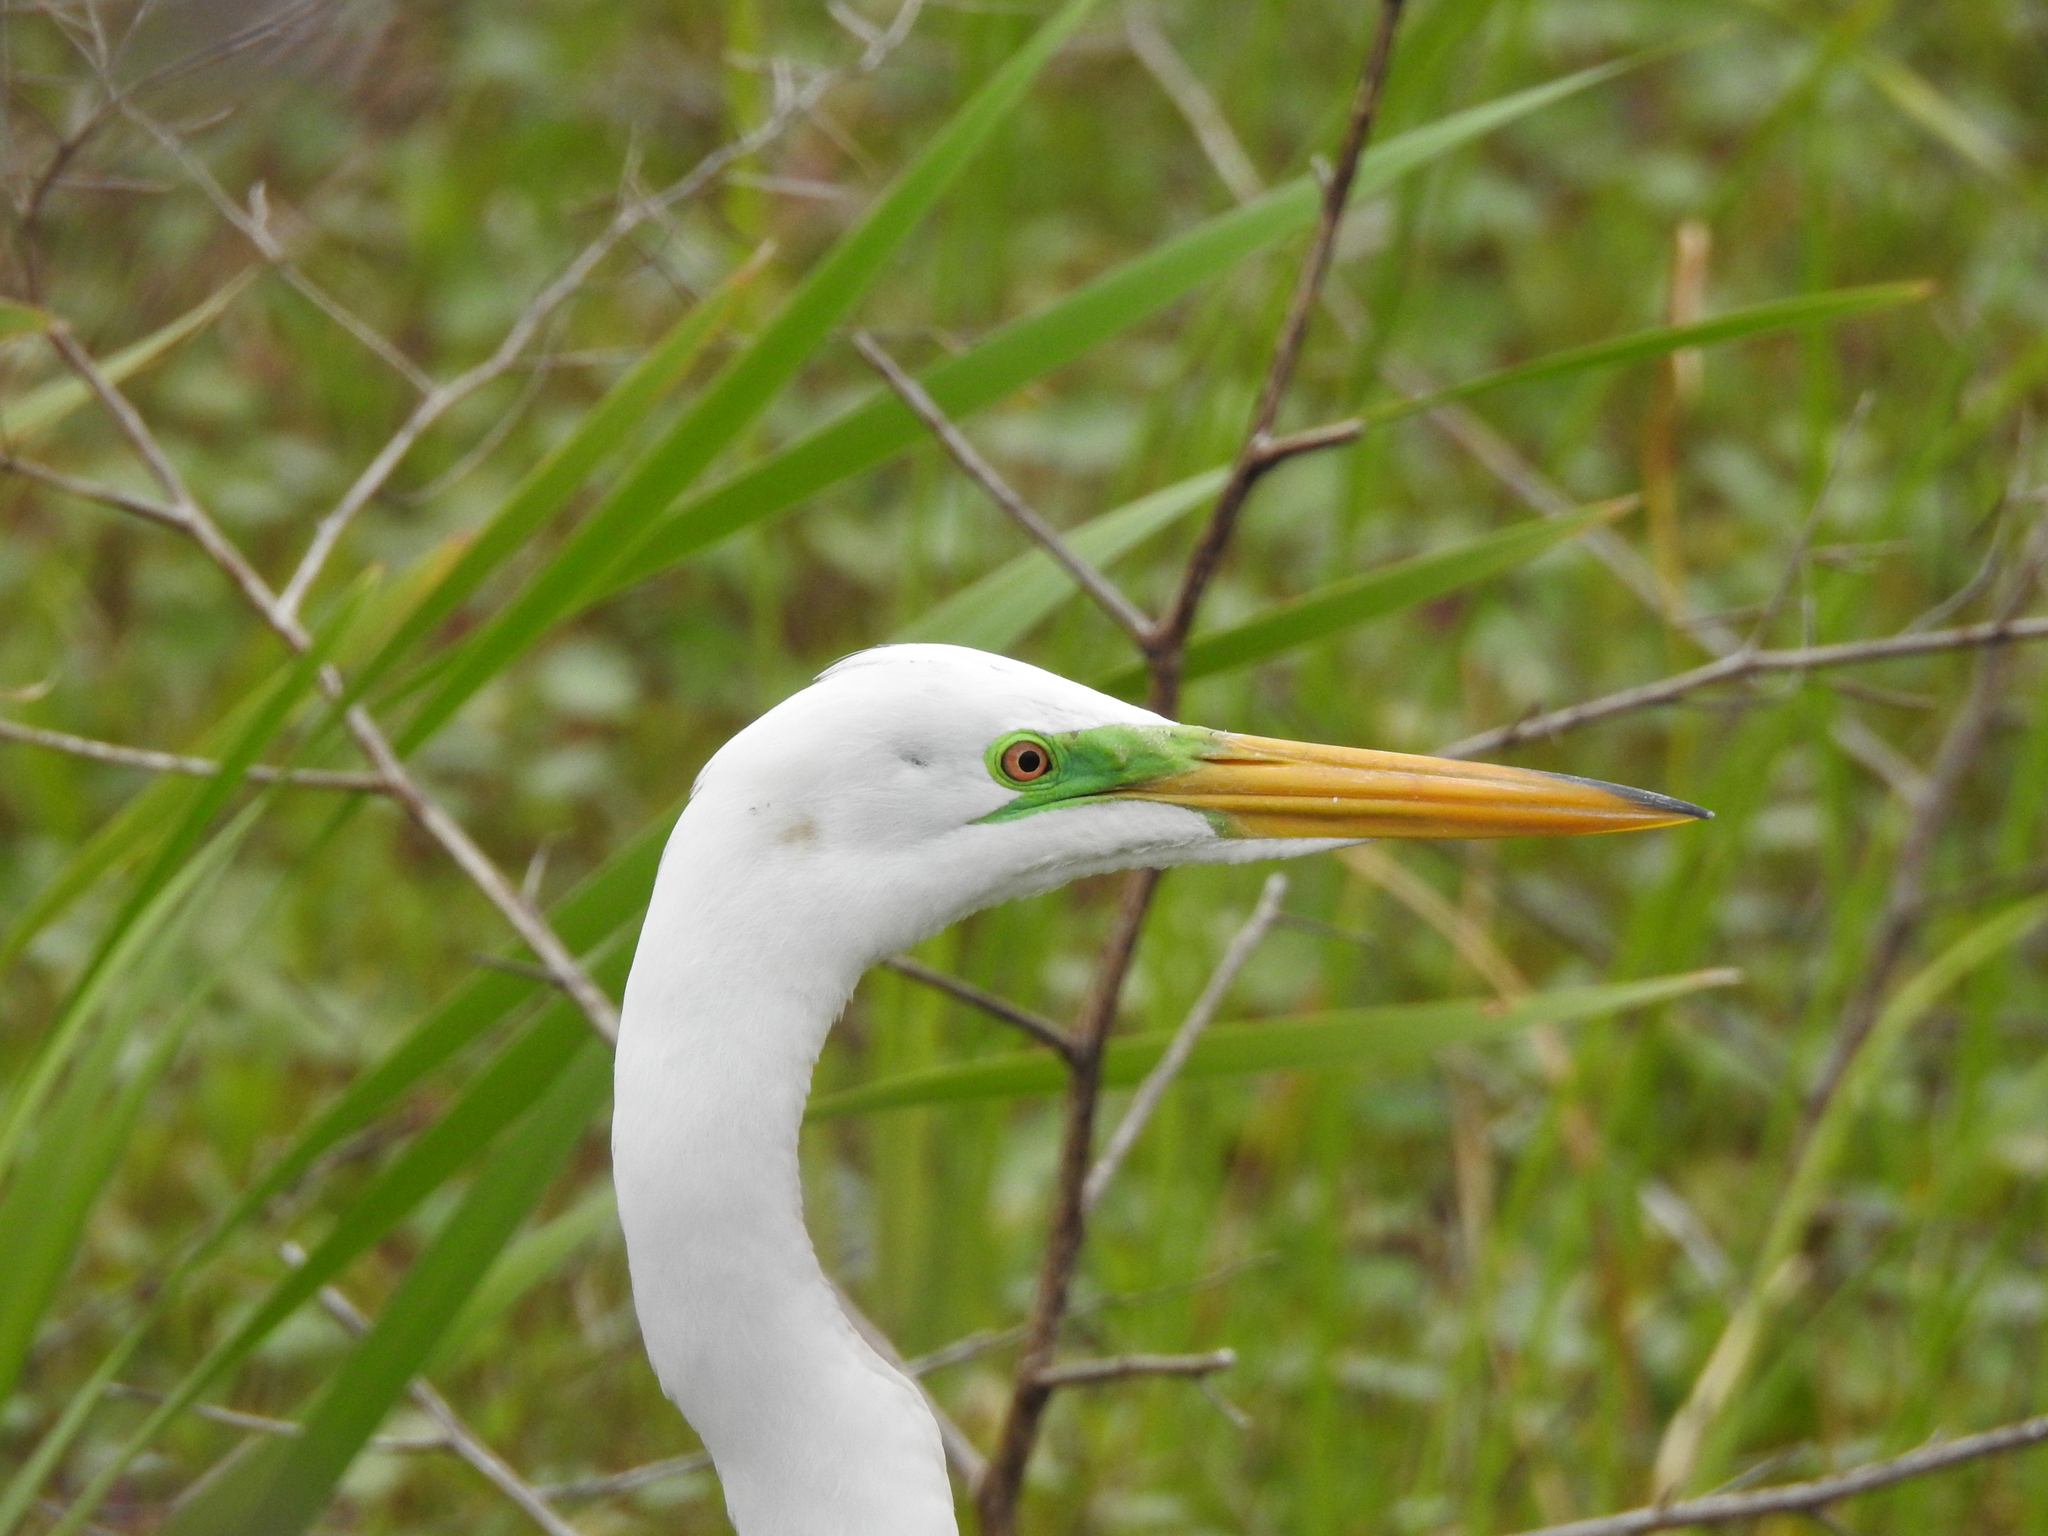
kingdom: Animalia
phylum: Chordata
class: Aves
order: Pelecaniformes
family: Ardeidae
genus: Ardea
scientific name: Ardea alba
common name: Great egret
